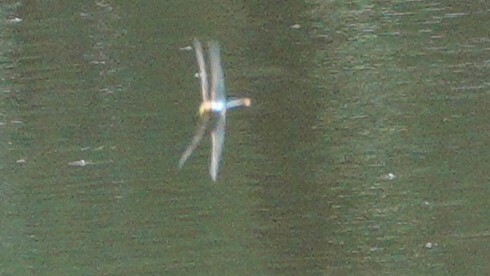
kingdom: Animalia
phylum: Arthropoda
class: Insecta
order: Odonata
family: Aeshnidae
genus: Anax
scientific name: Anax junius
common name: Common green darner
